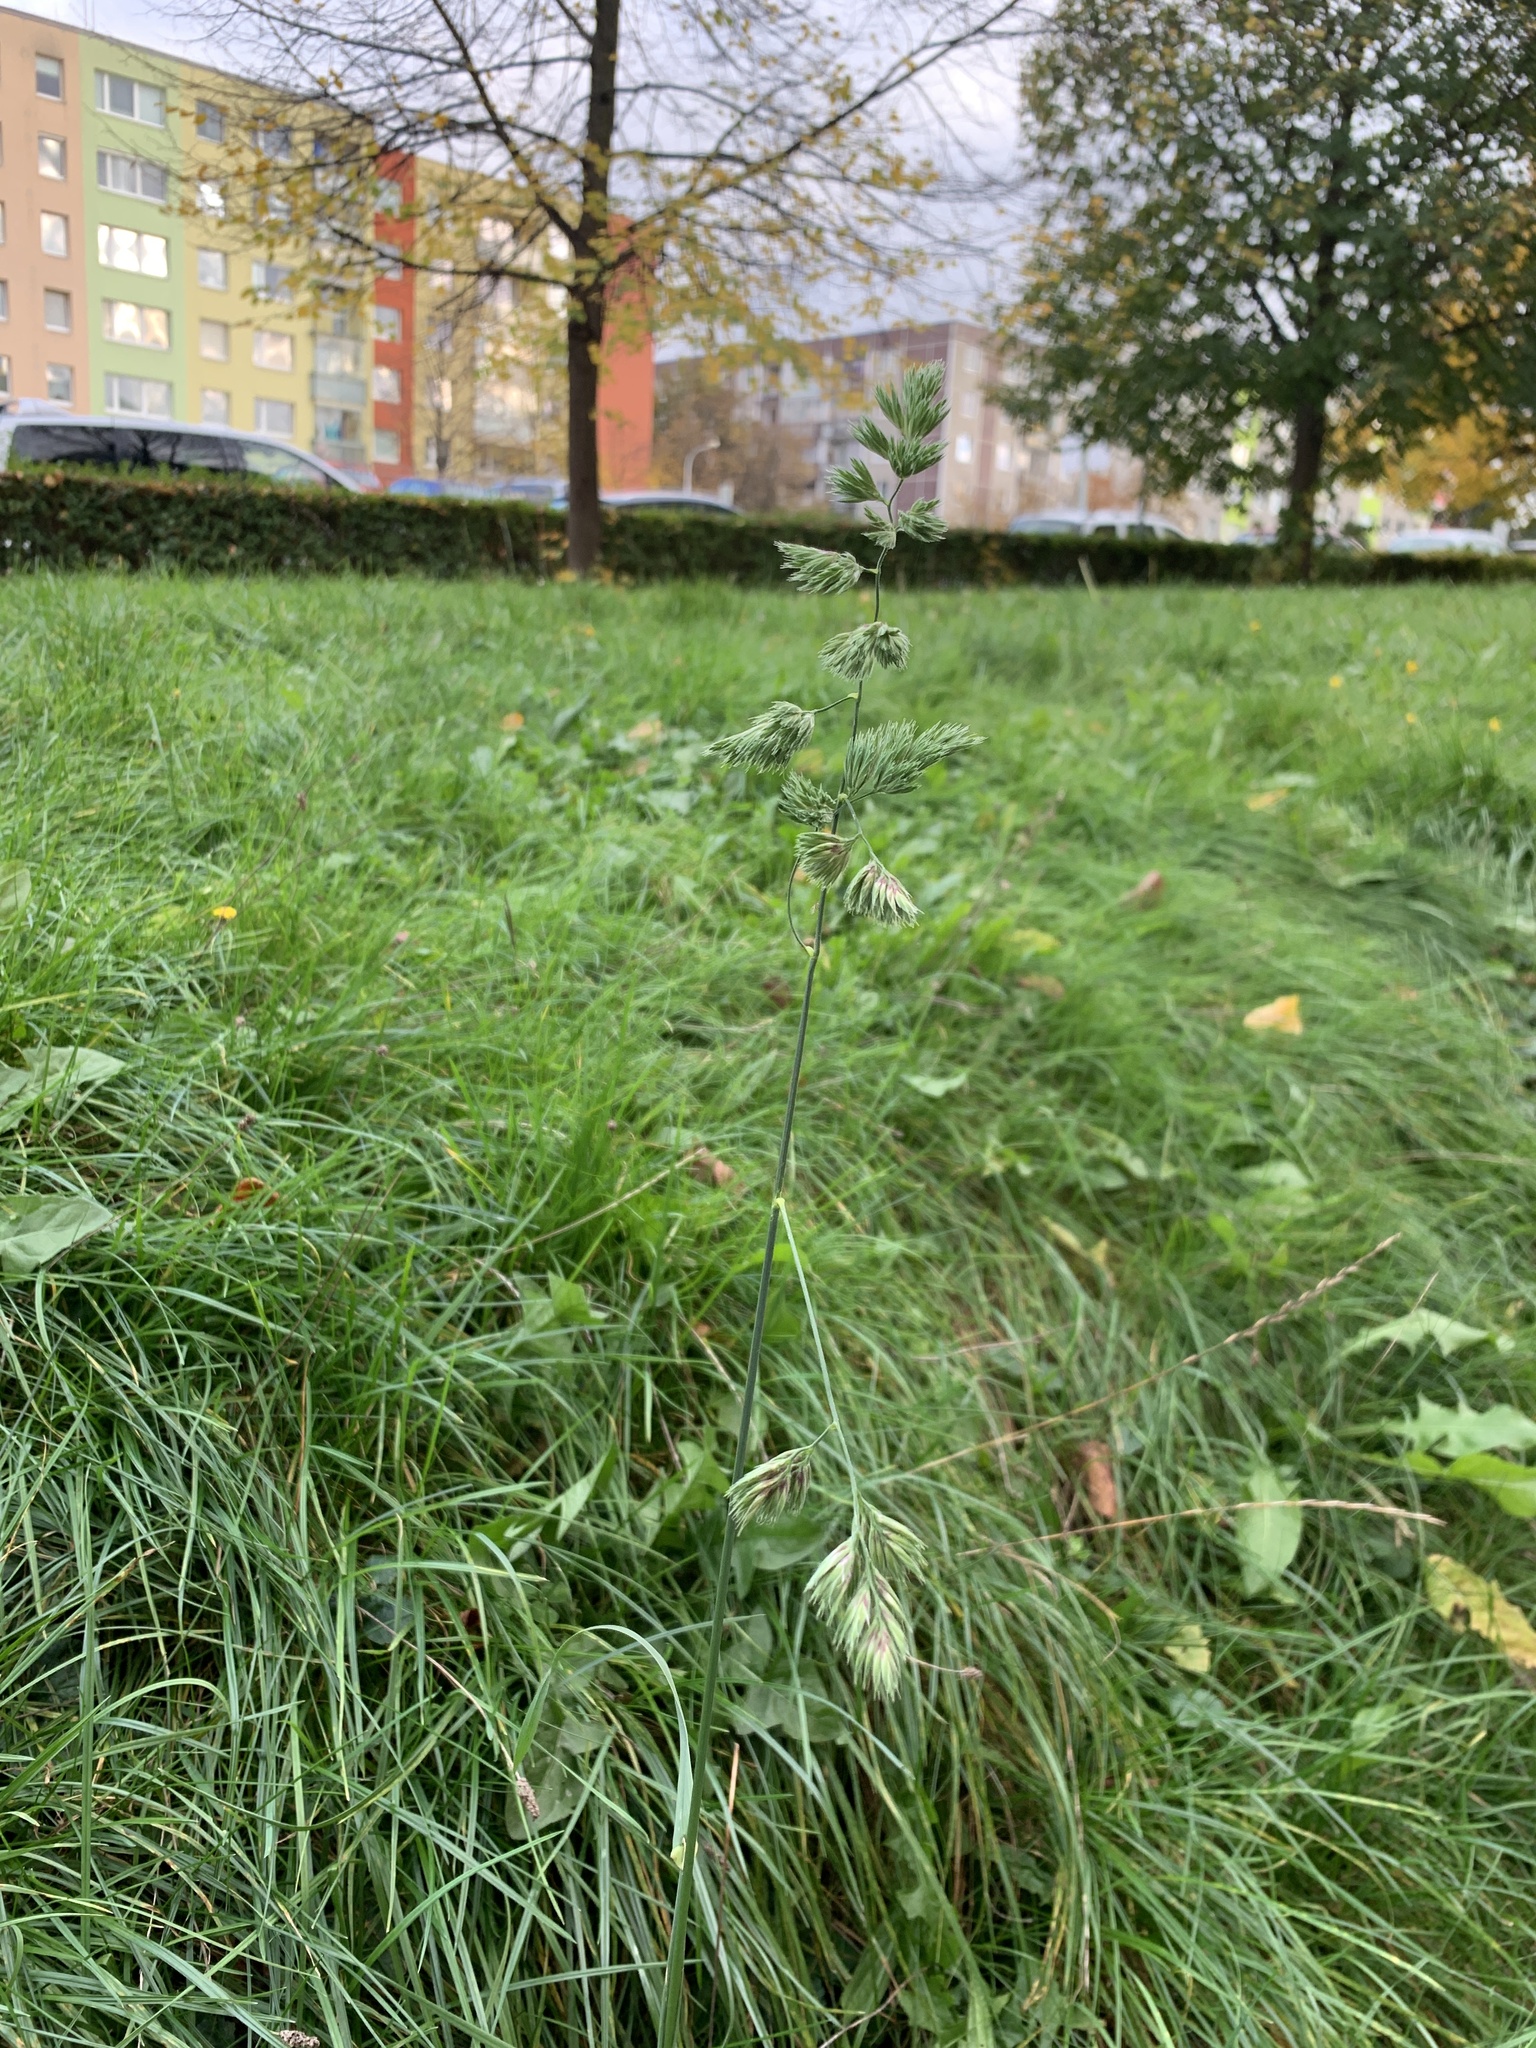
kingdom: Plantae
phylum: Tracheophyta
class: Liliopsida
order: Poales
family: Poaceae
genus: Dactylis
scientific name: Dactylis glomerata
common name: Orchardgrass
